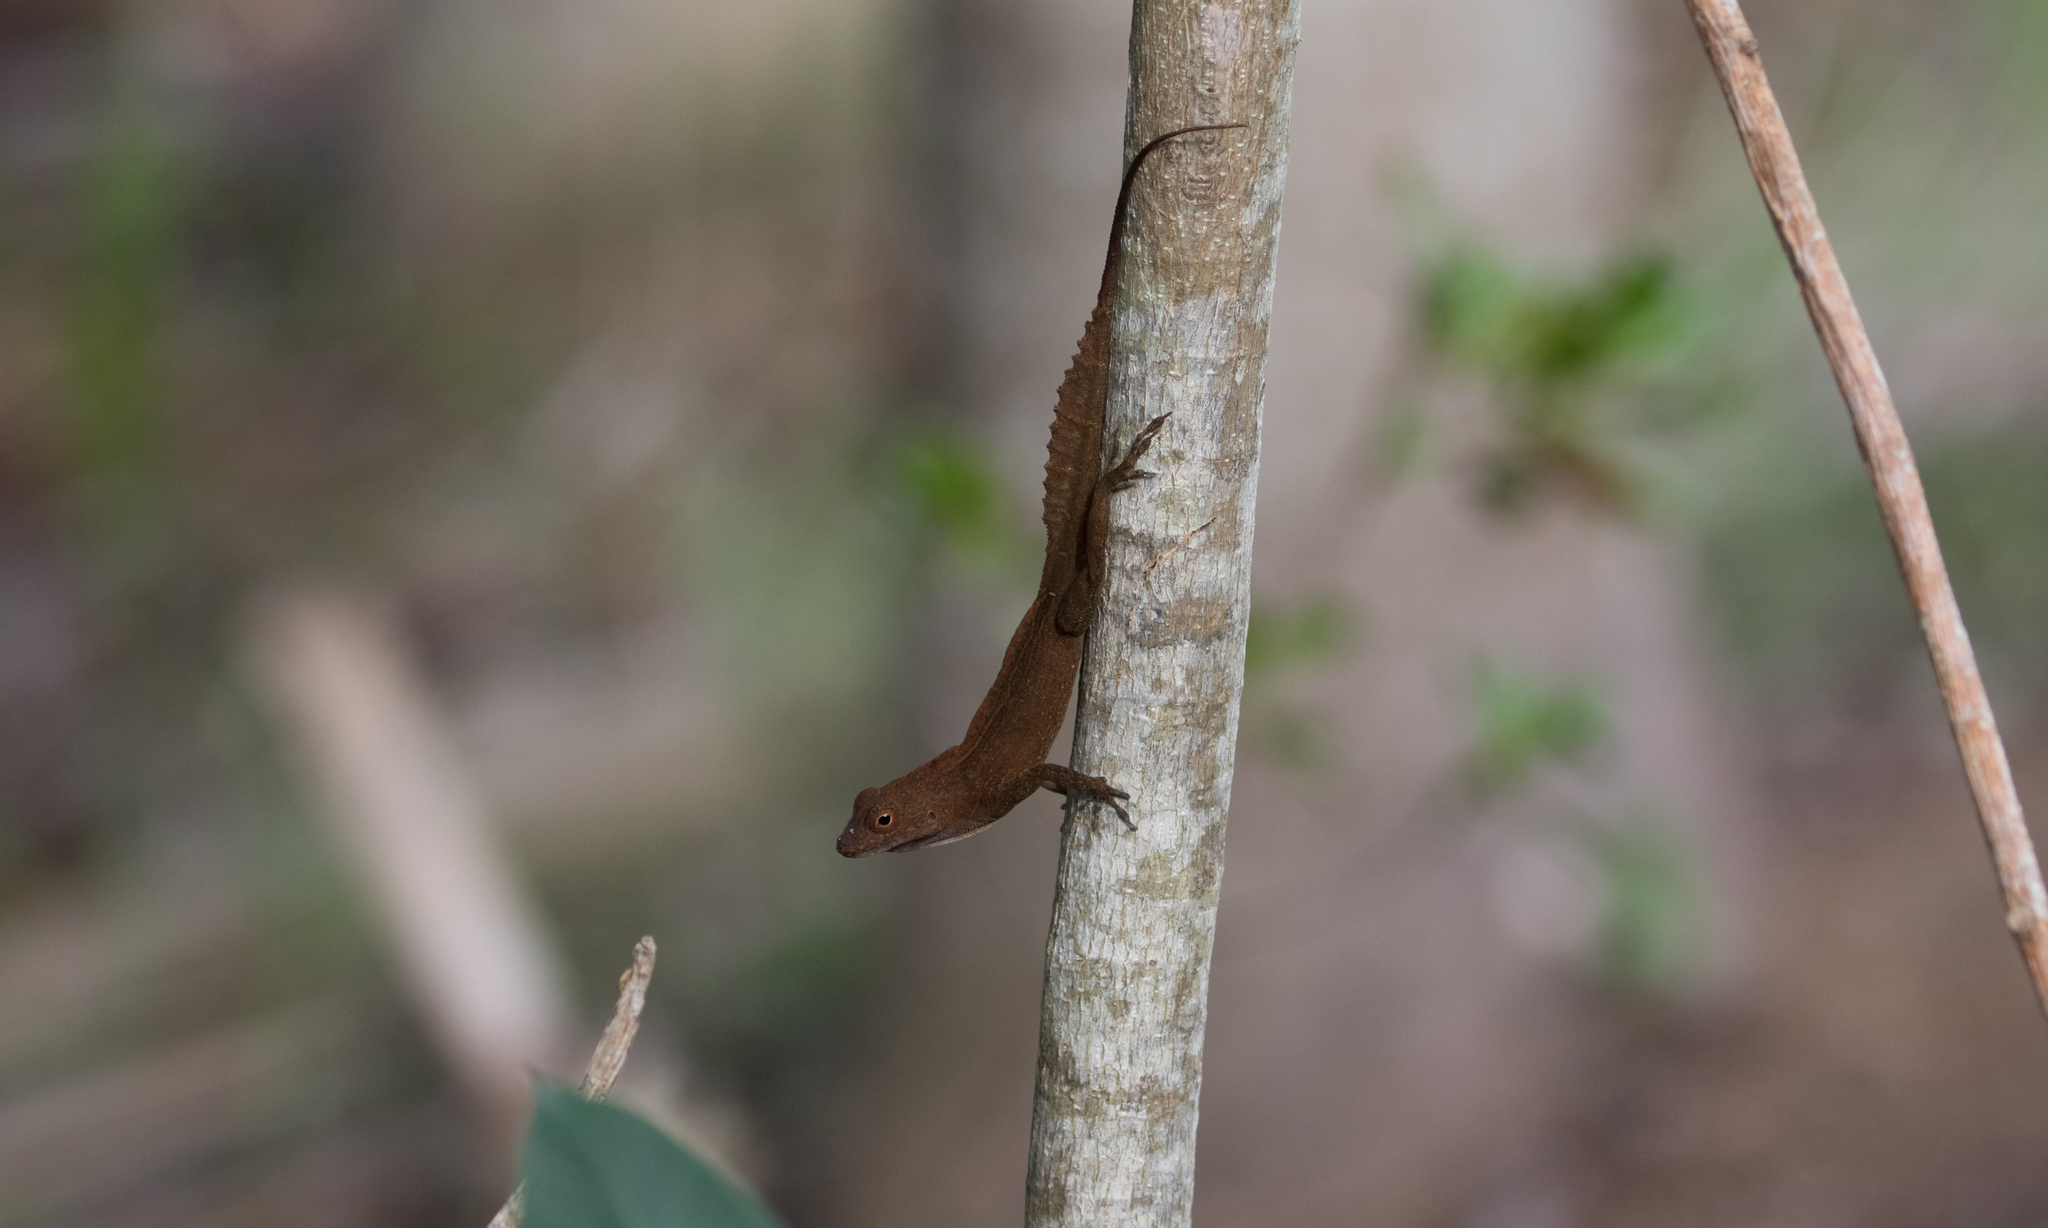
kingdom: Animalia
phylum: Chordata
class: Squamata
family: Dactyloidae
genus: Anolis
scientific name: Anolis cristatellus
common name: Crested anole
